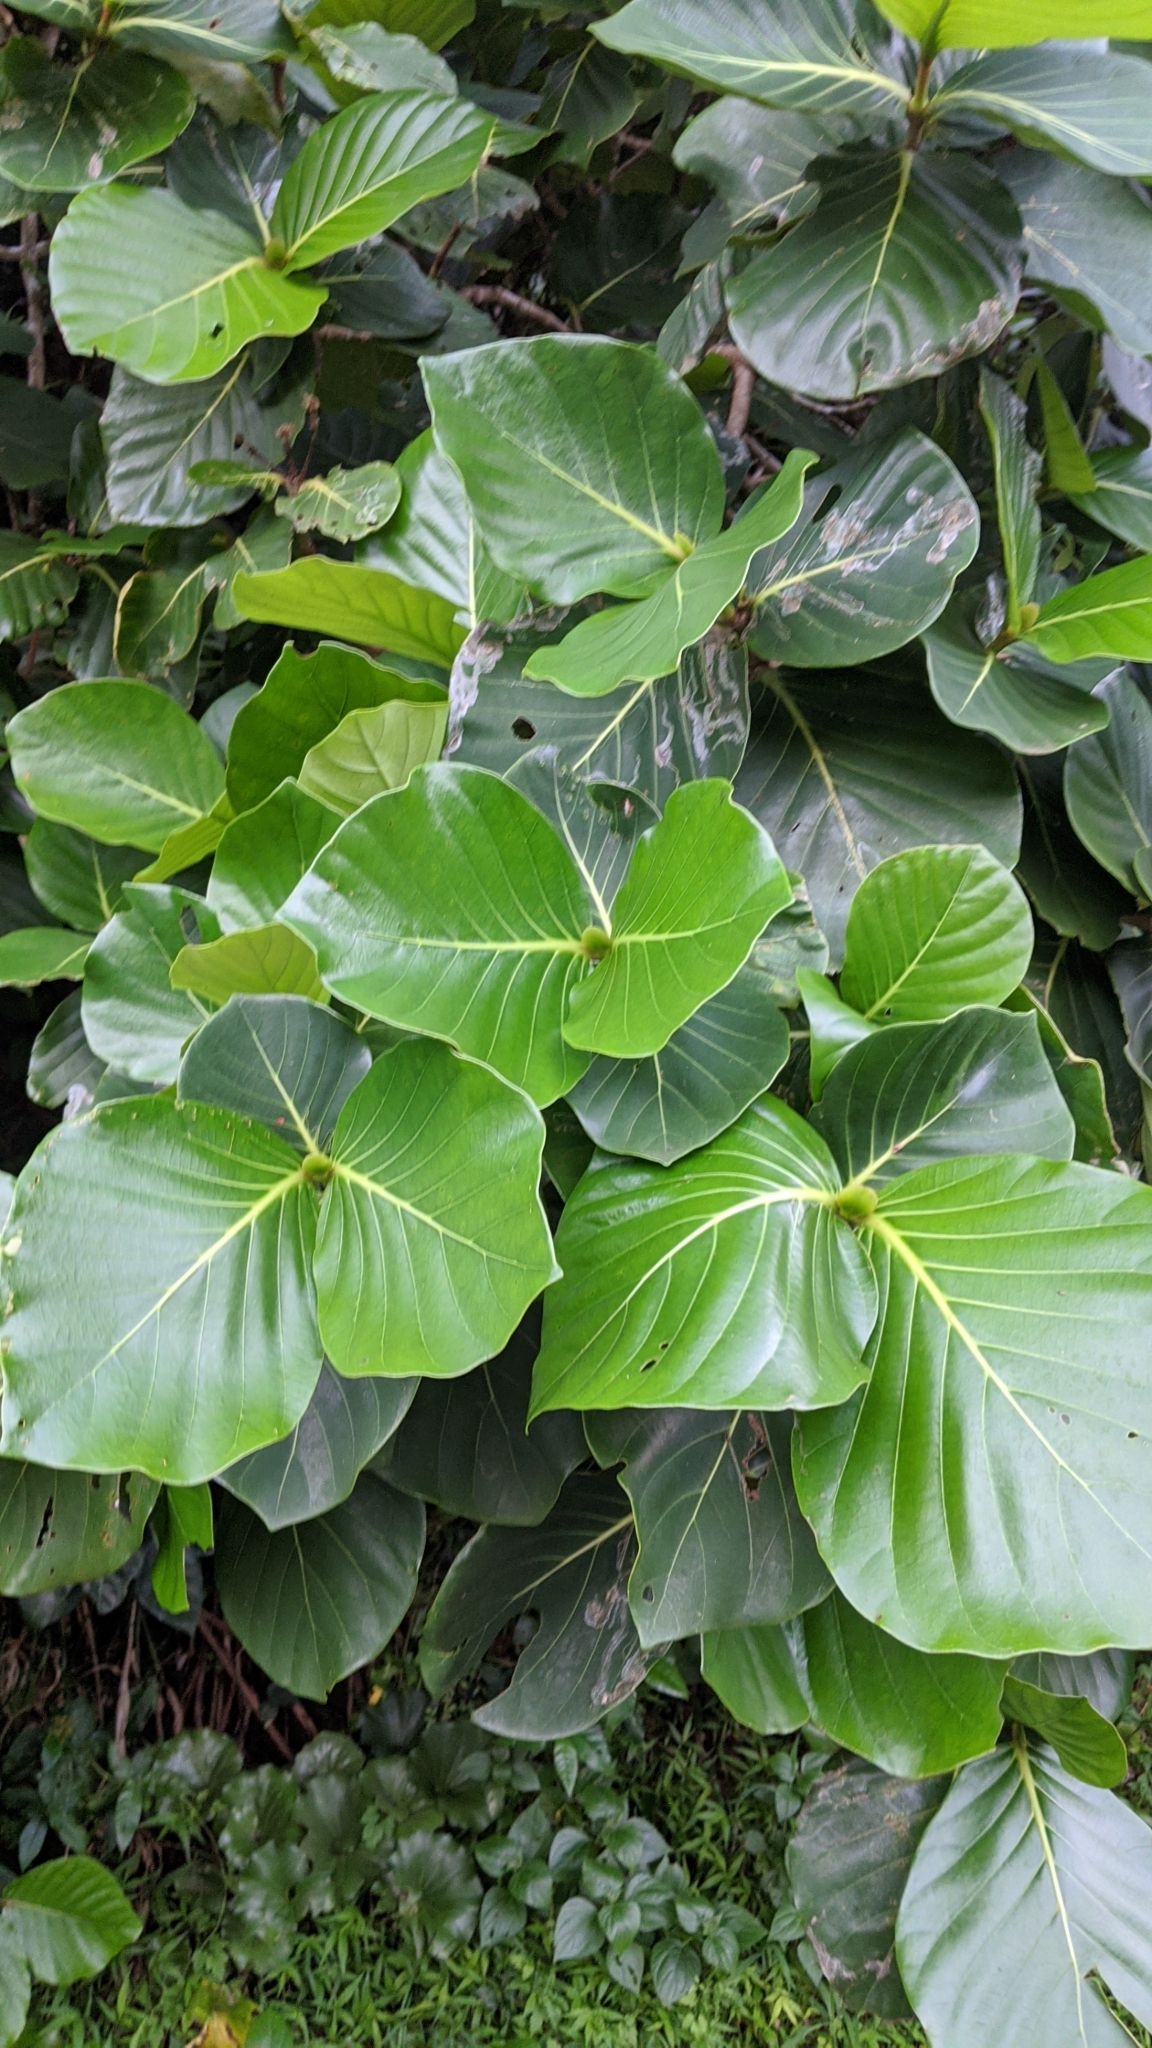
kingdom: Plantae
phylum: Tracheophyta
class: Magnoliopsida
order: Gentianales
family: Rubiaceae
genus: Neonauclea
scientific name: Neonauclea reticulata
